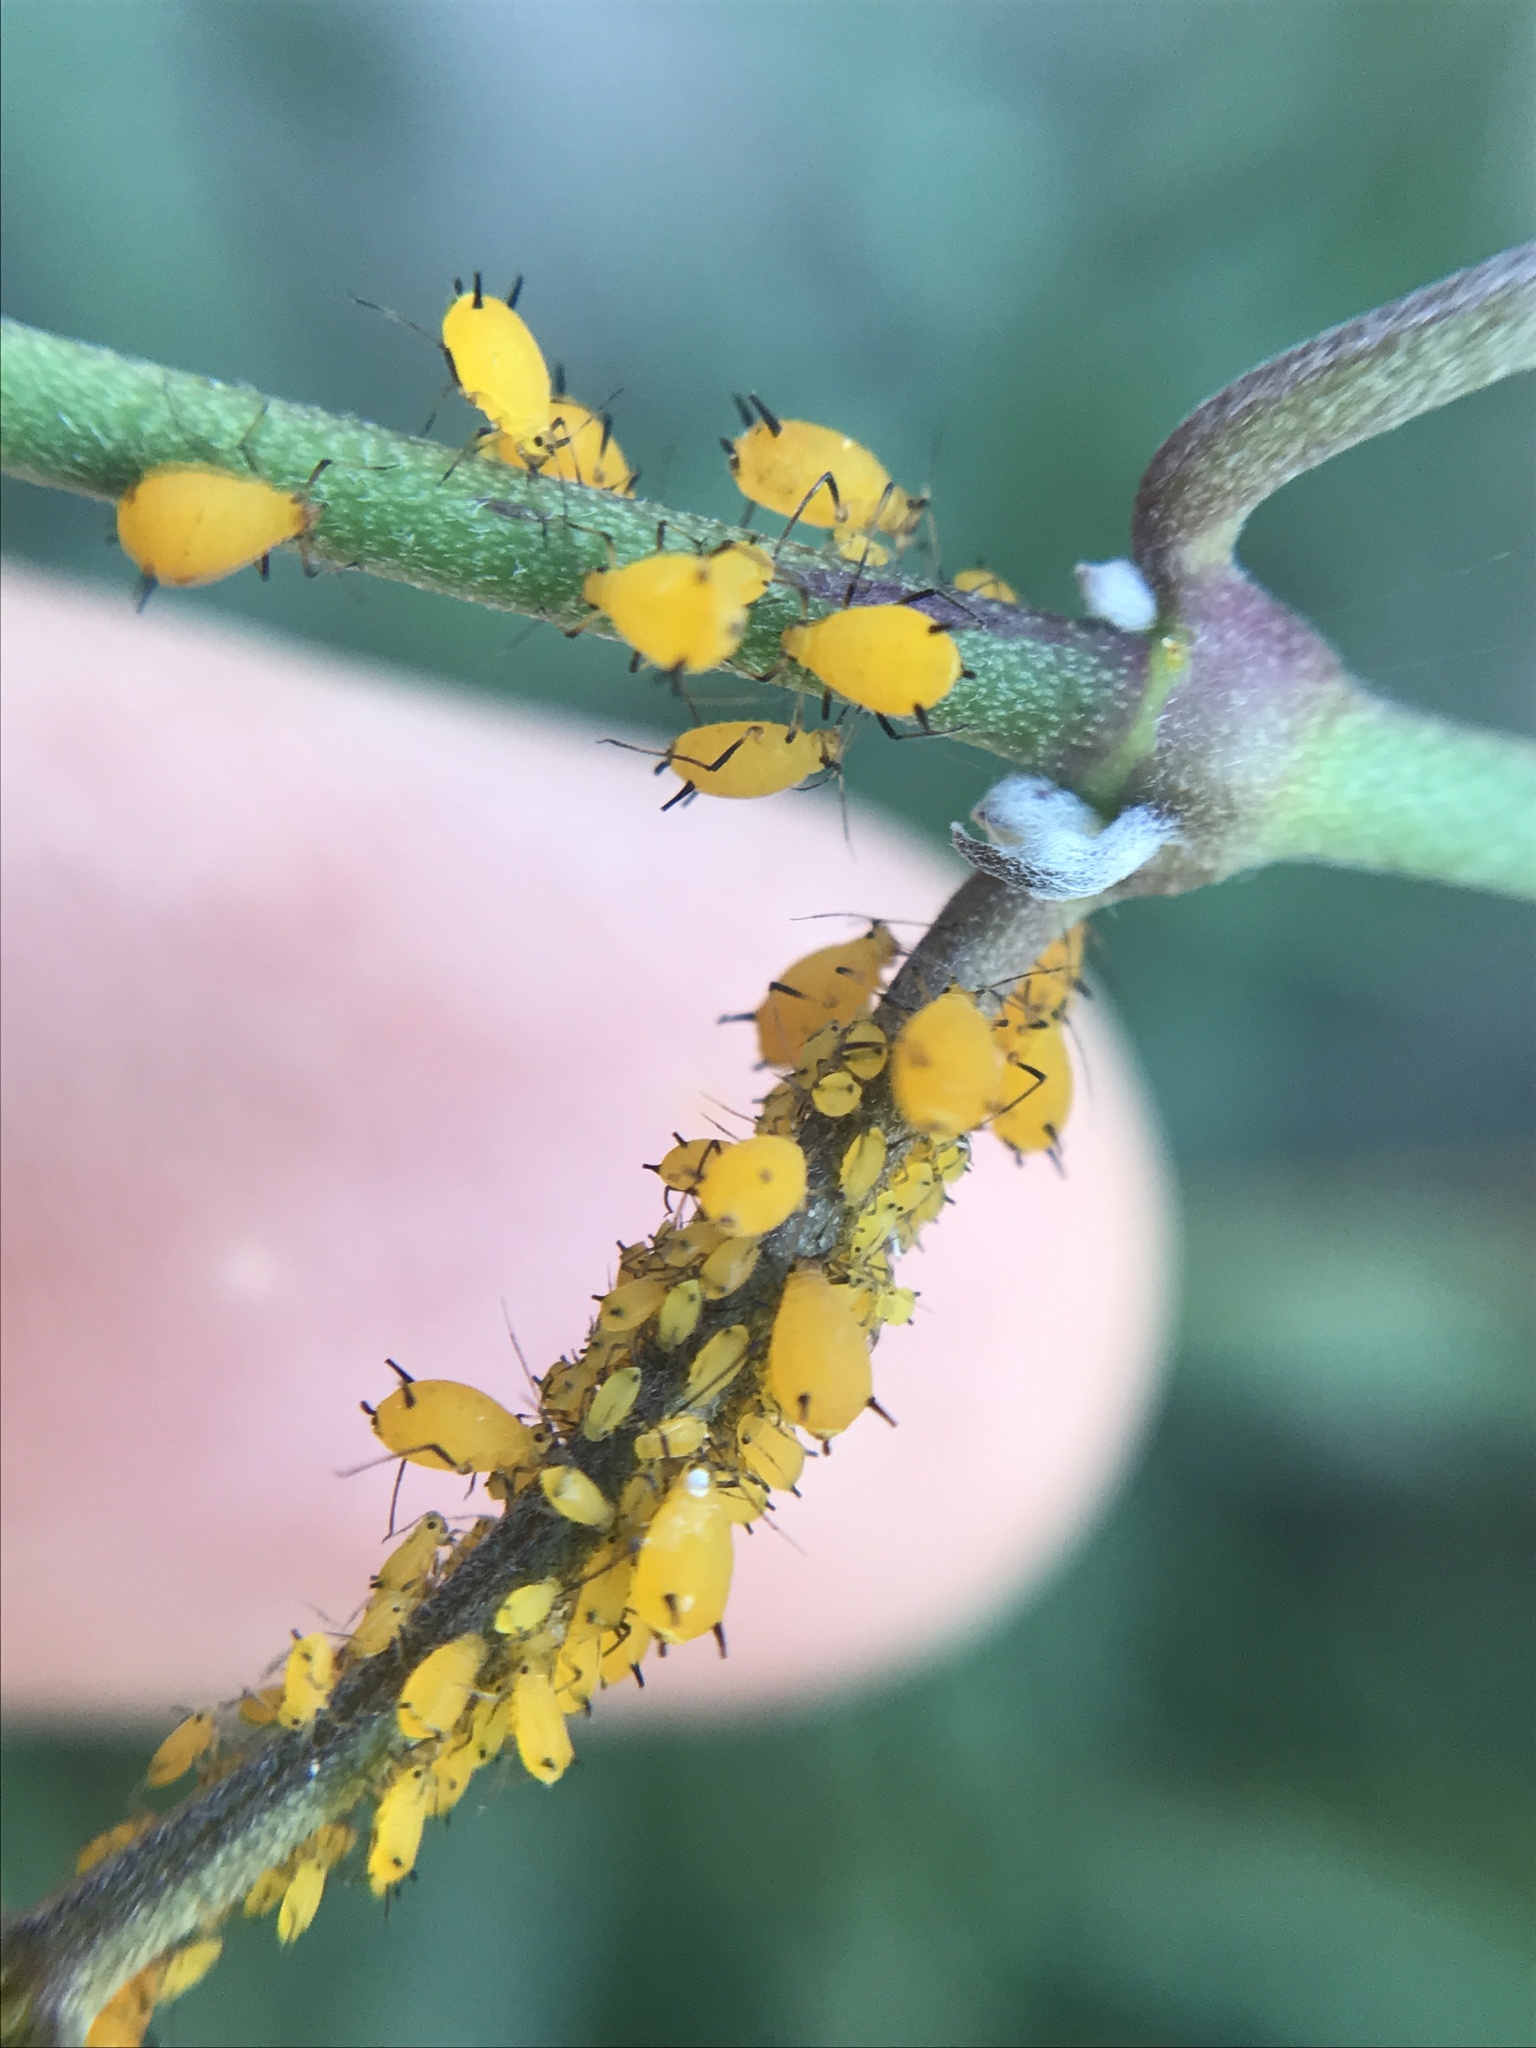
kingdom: Animalia
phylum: Arthropoda
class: Insecta
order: Hemiptera
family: Aphididae
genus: Aphis
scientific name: Aphis nerii
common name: Oleander aphid
